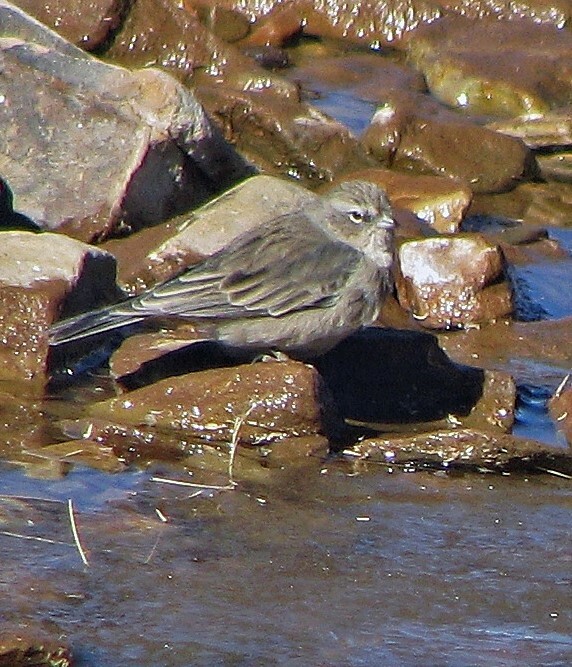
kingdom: Animalia
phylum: Chordata
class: Aves
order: Passeriformes
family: Thraupidae
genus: Geospizopsis
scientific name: Geospizopsis plebejus
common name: Ash-breasted sierra-finch
